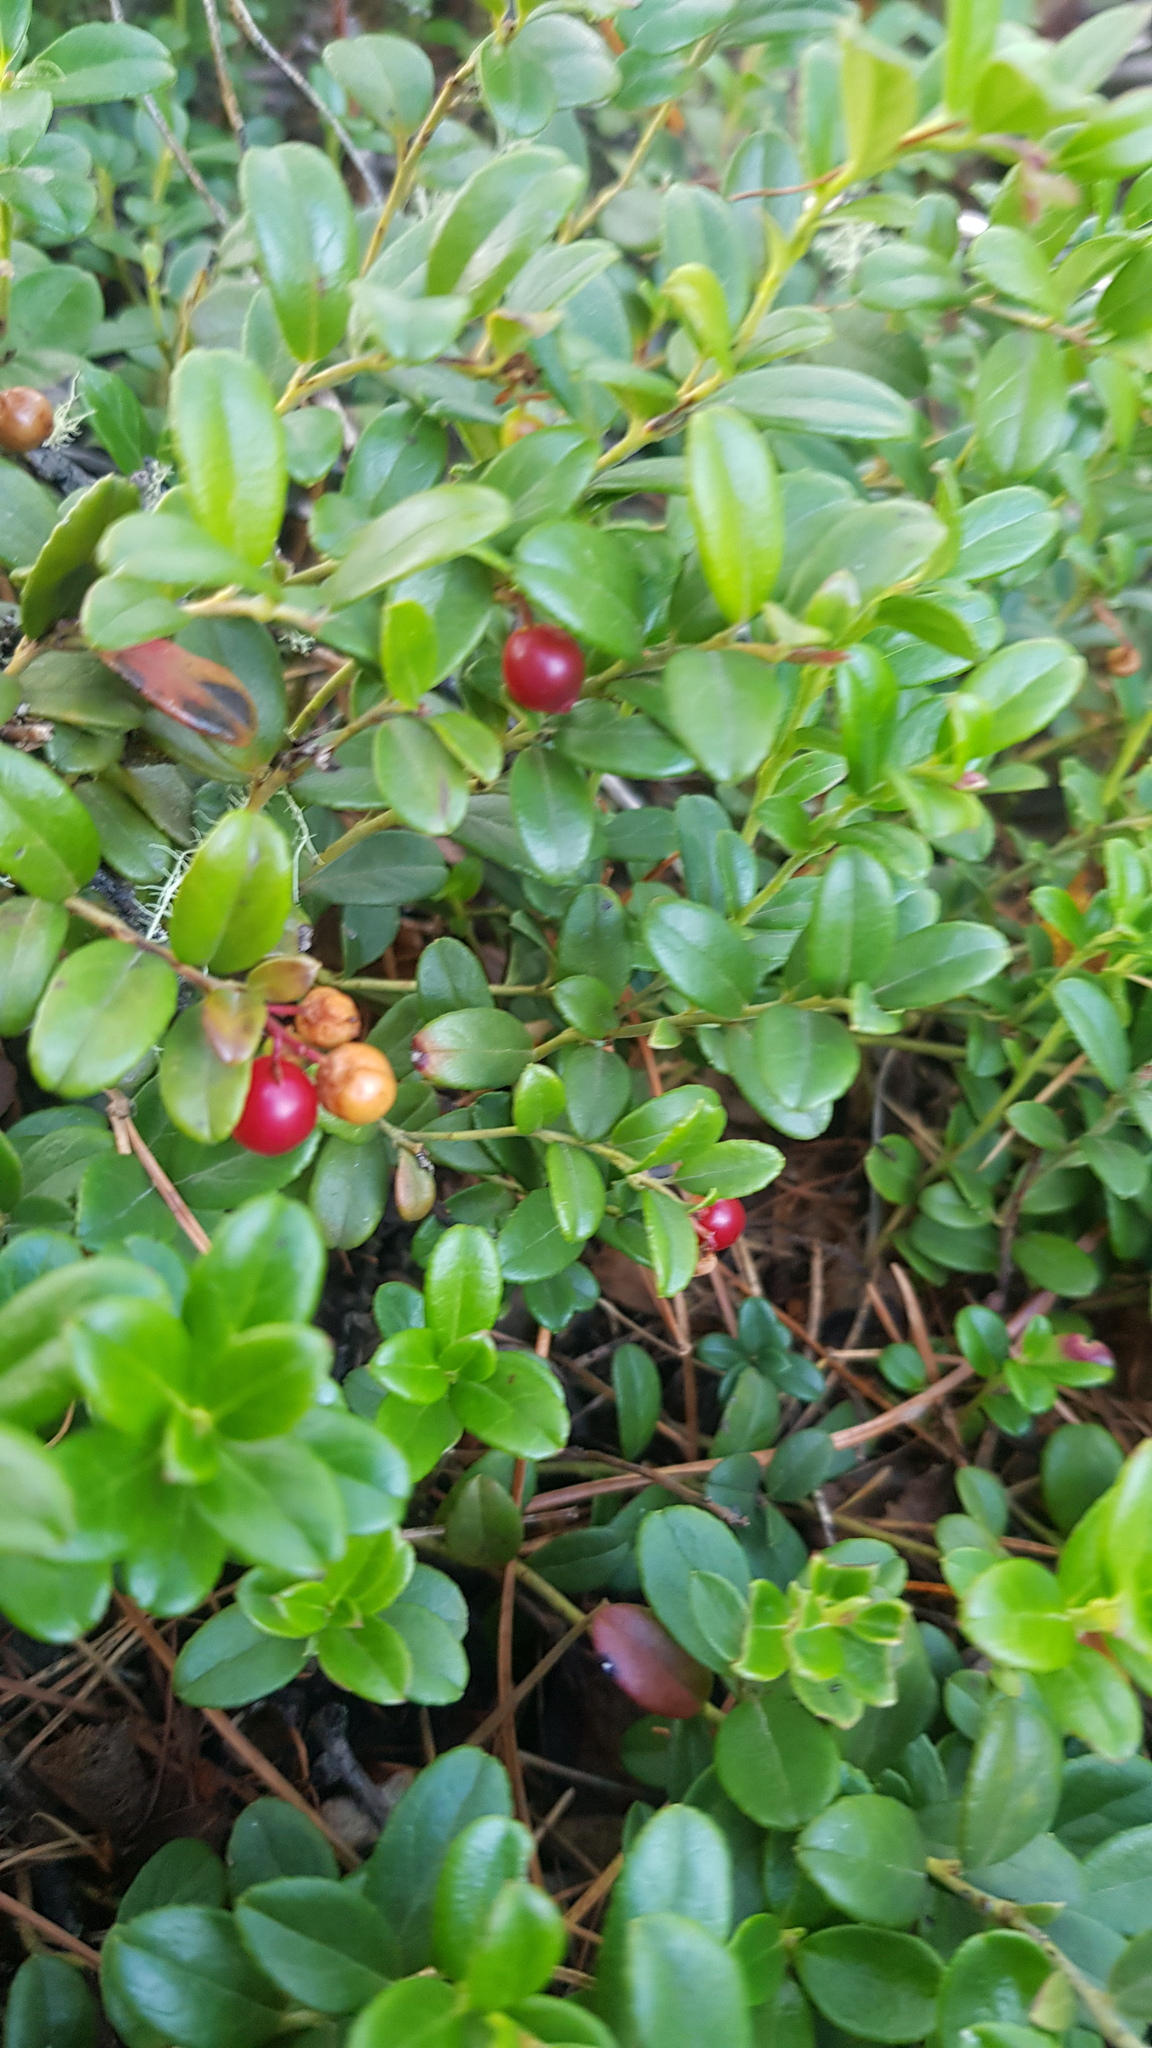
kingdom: Plantae
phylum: Tracheophyta
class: Magnoliopsida
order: Ericales
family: Ericaceae
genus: Vaccinium
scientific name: Vaccinium vitis-idaea
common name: Cowberry
